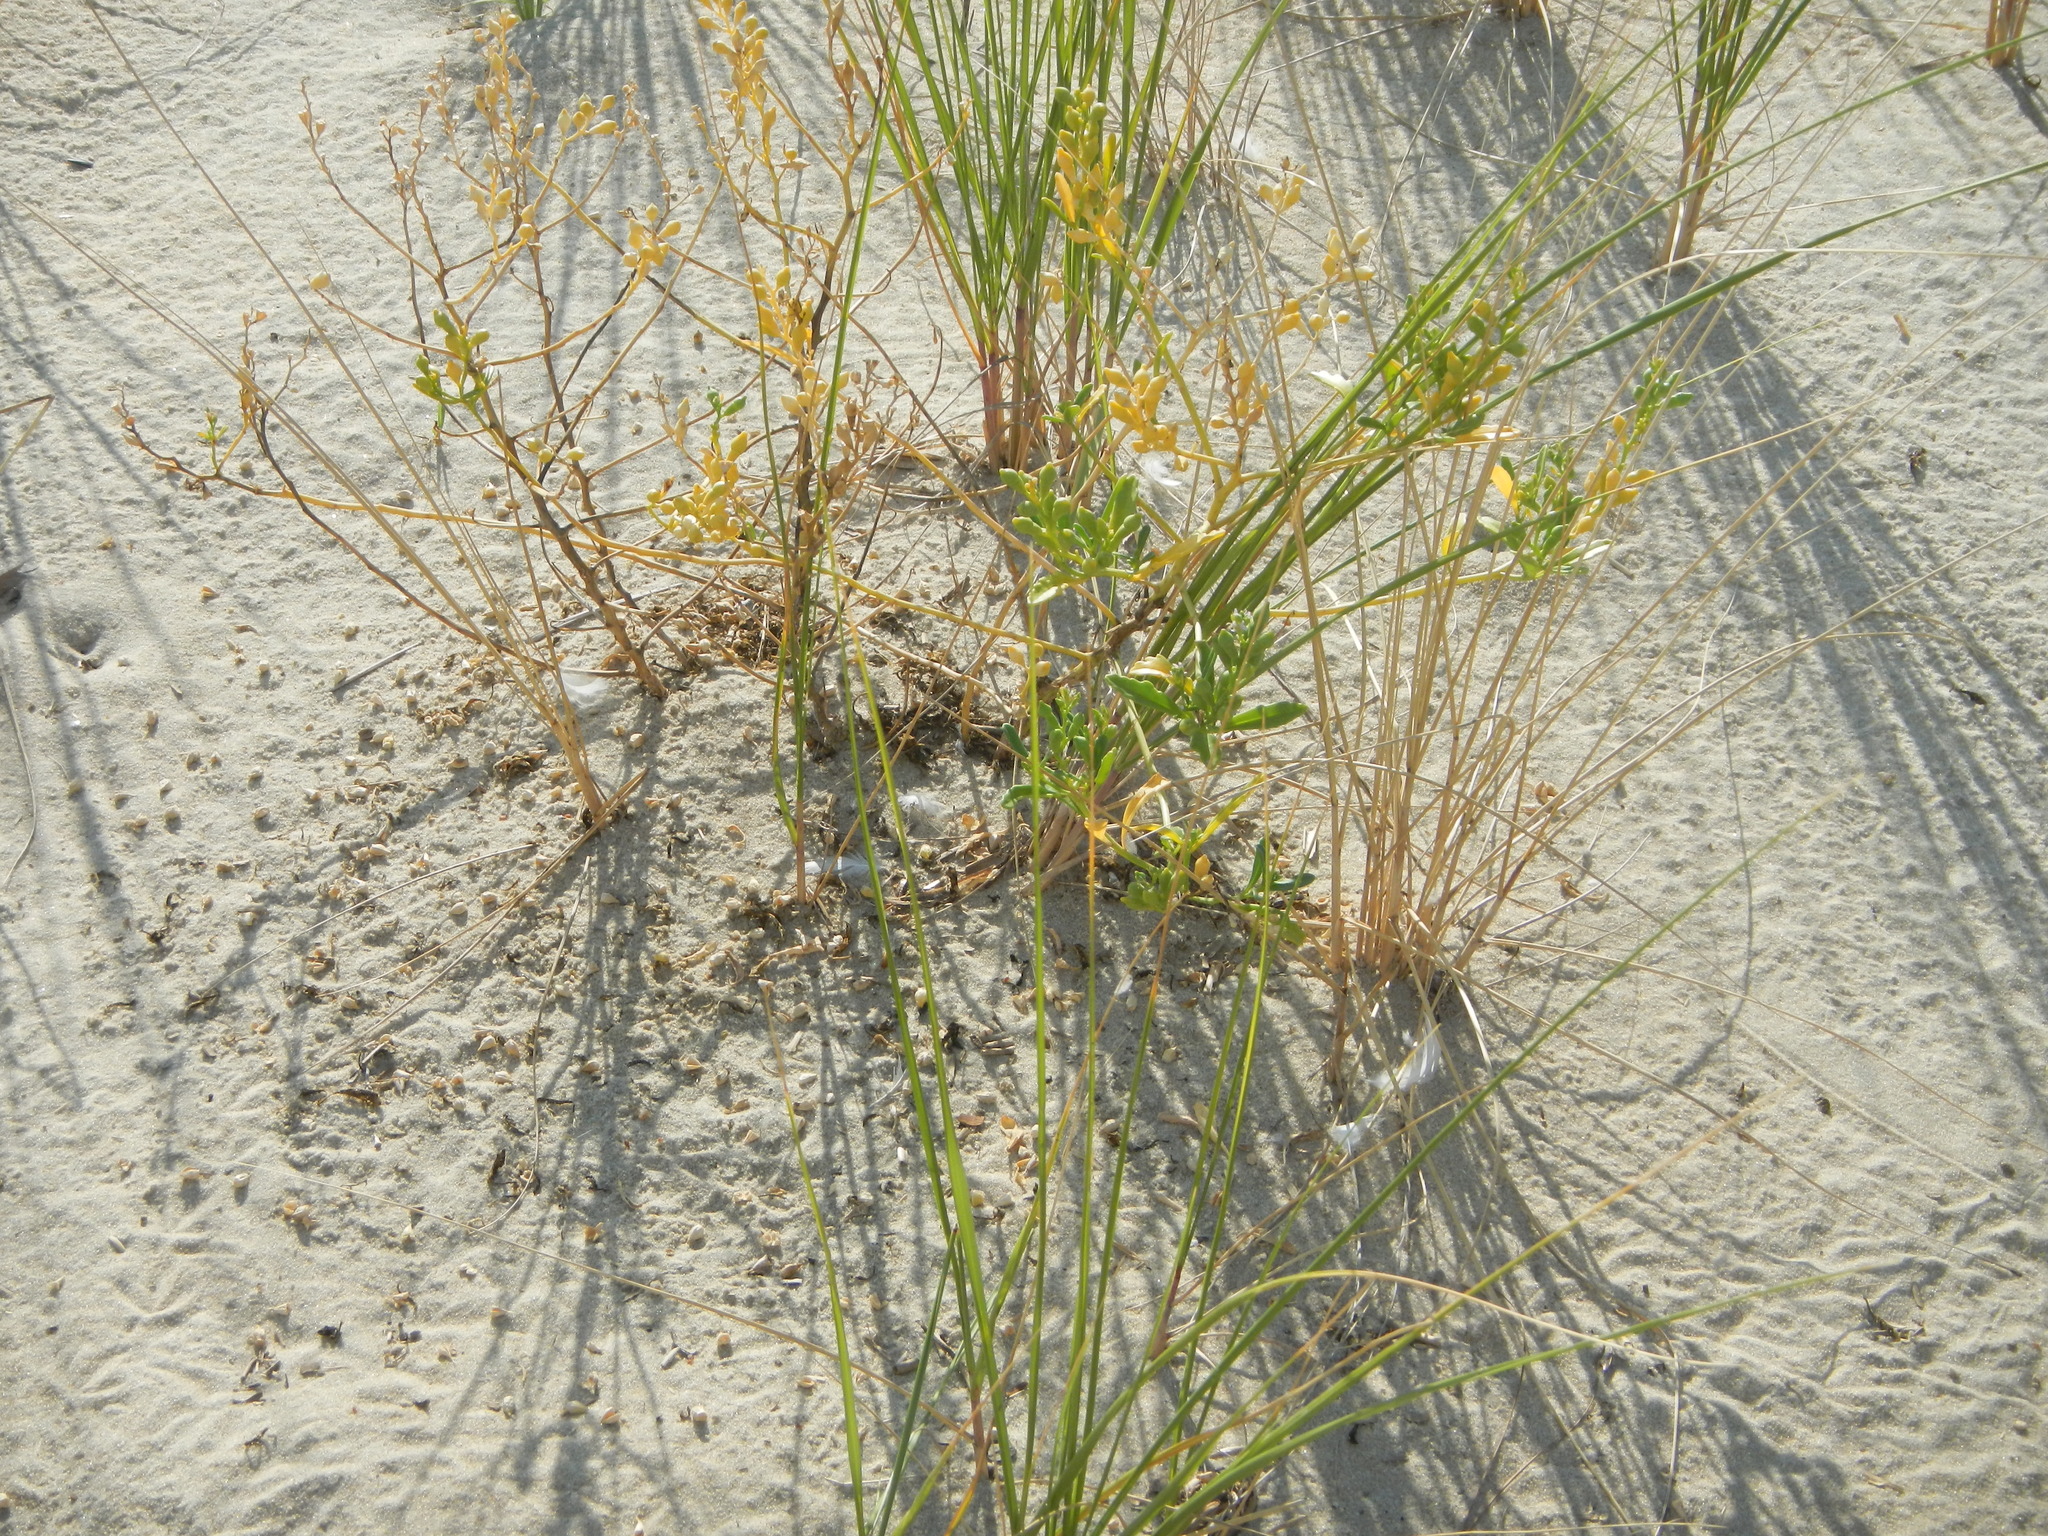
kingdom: Plantae
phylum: Tracheophyta
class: Magnoliopsida
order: Brassicales
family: Brassicaceae
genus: Cakile
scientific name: Cakile edentula
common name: American sea rocket
